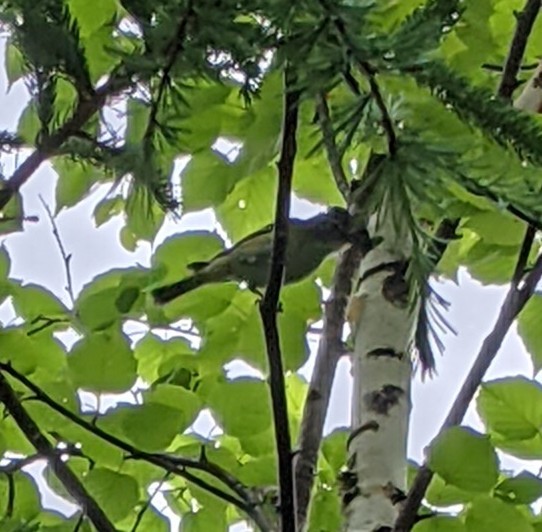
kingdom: Animalia
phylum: Chordata
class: Aves
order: Passeriformes
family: Vireonidae
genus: Vireo
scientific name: Vireo solitarius
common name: Blue-headed vireo
